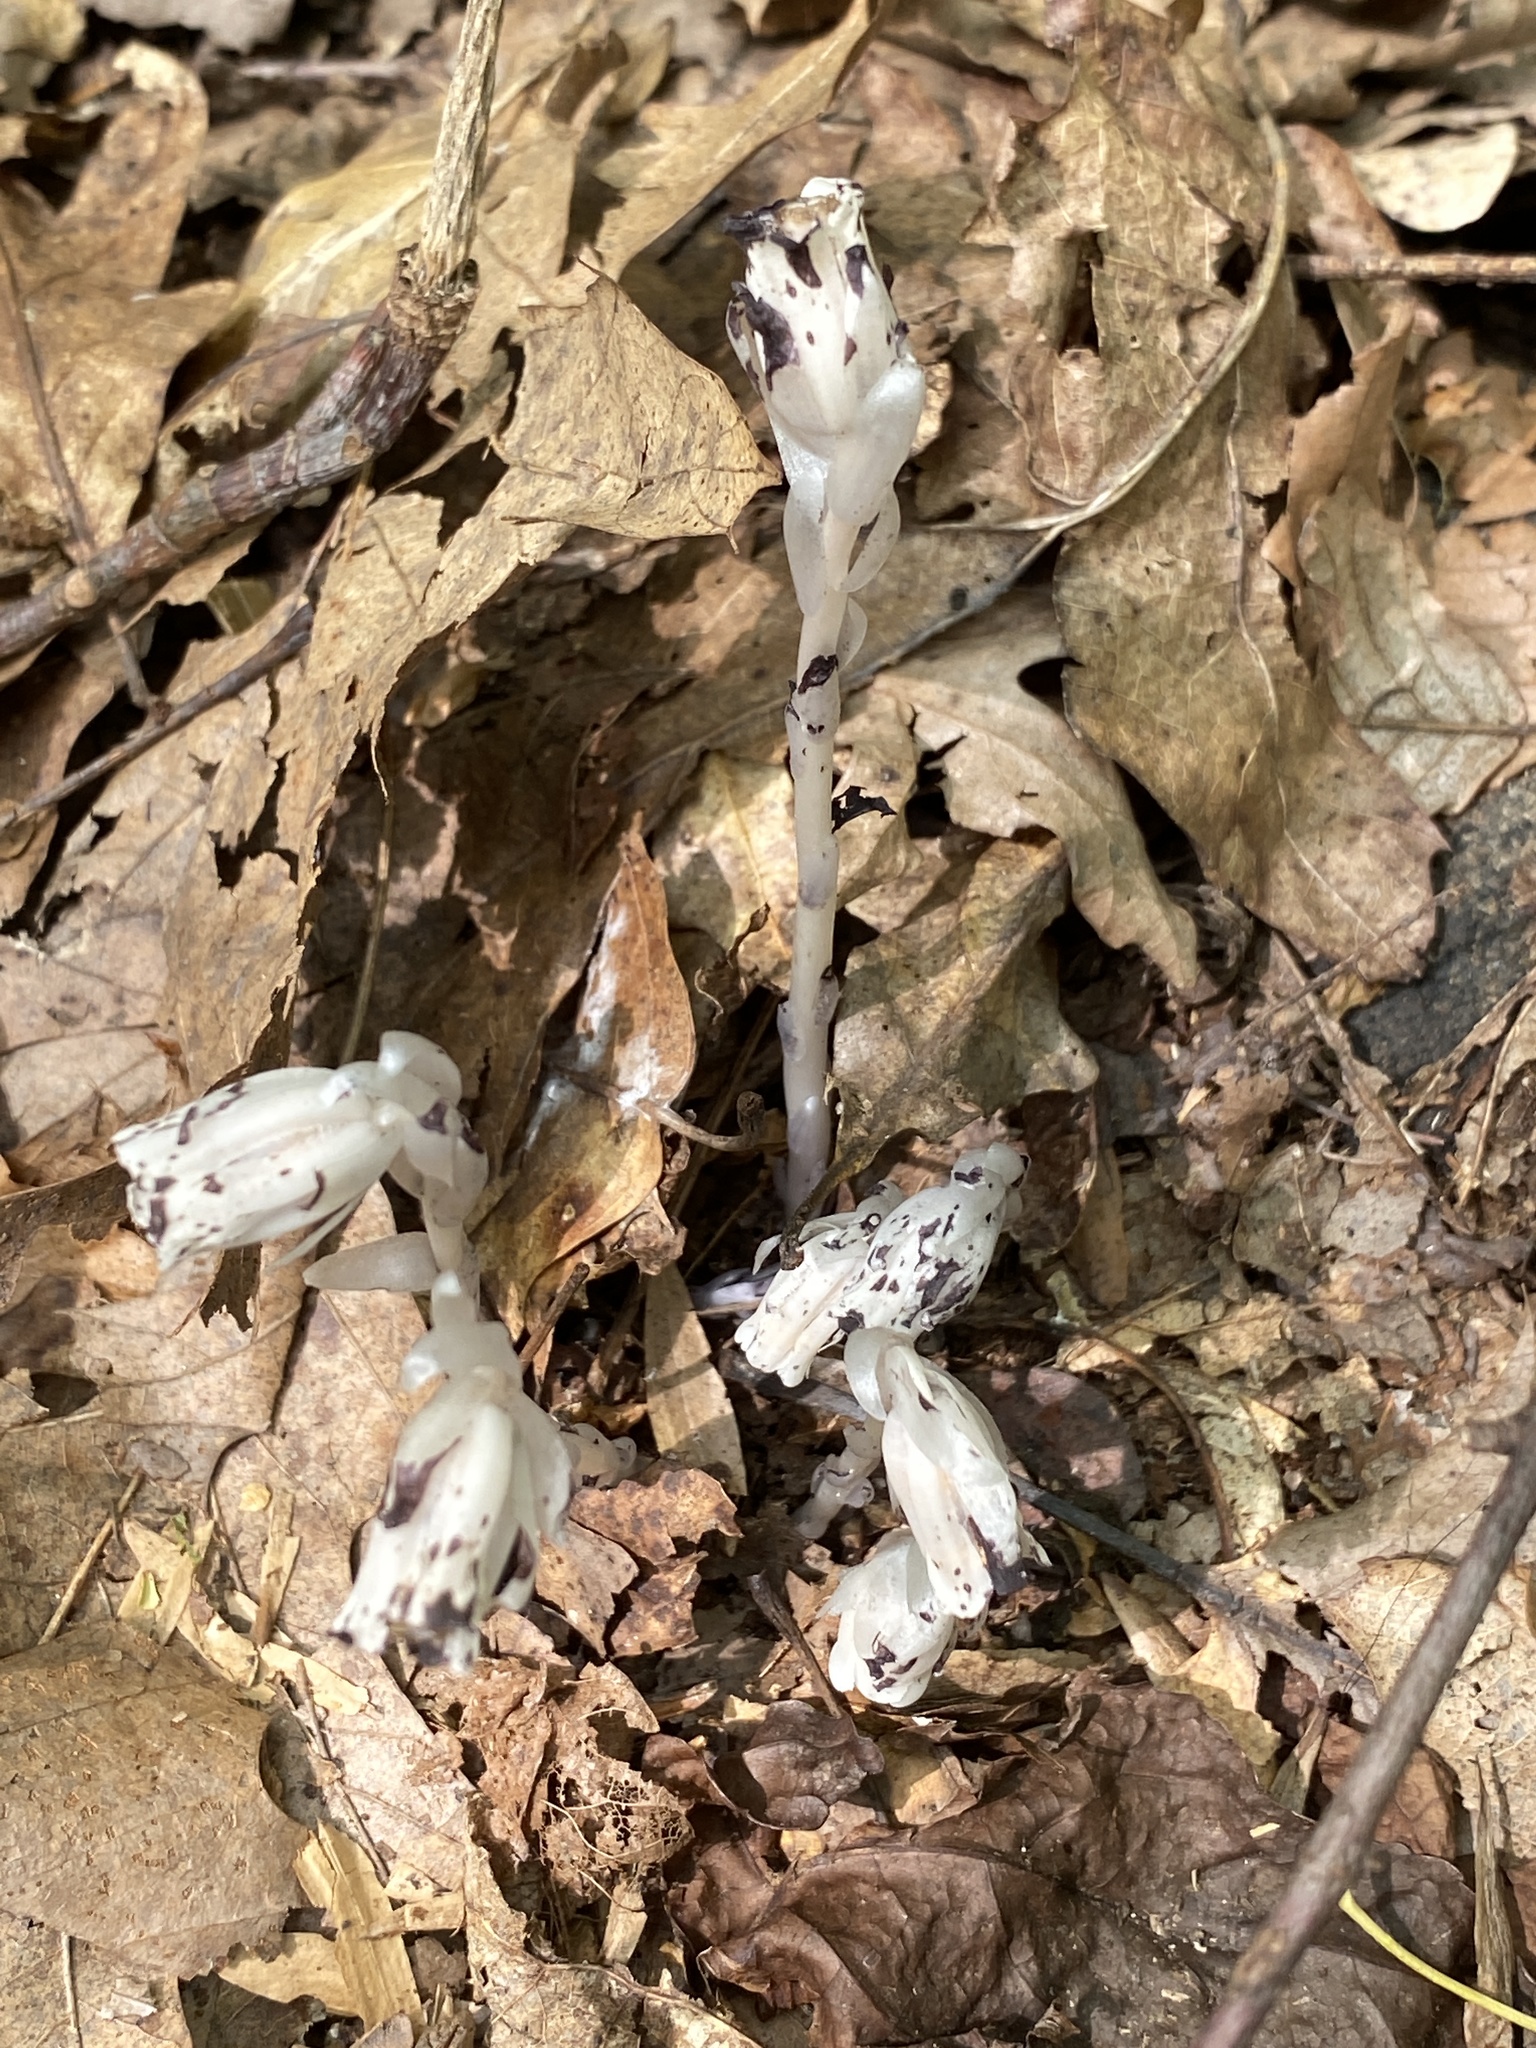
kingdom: Plantae
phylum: Tracheophyta
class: Magnoliopsida
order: Ericales
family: Ericaceae
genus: Monotropa
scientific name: Monotropa uniflora
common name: Convulsion root
